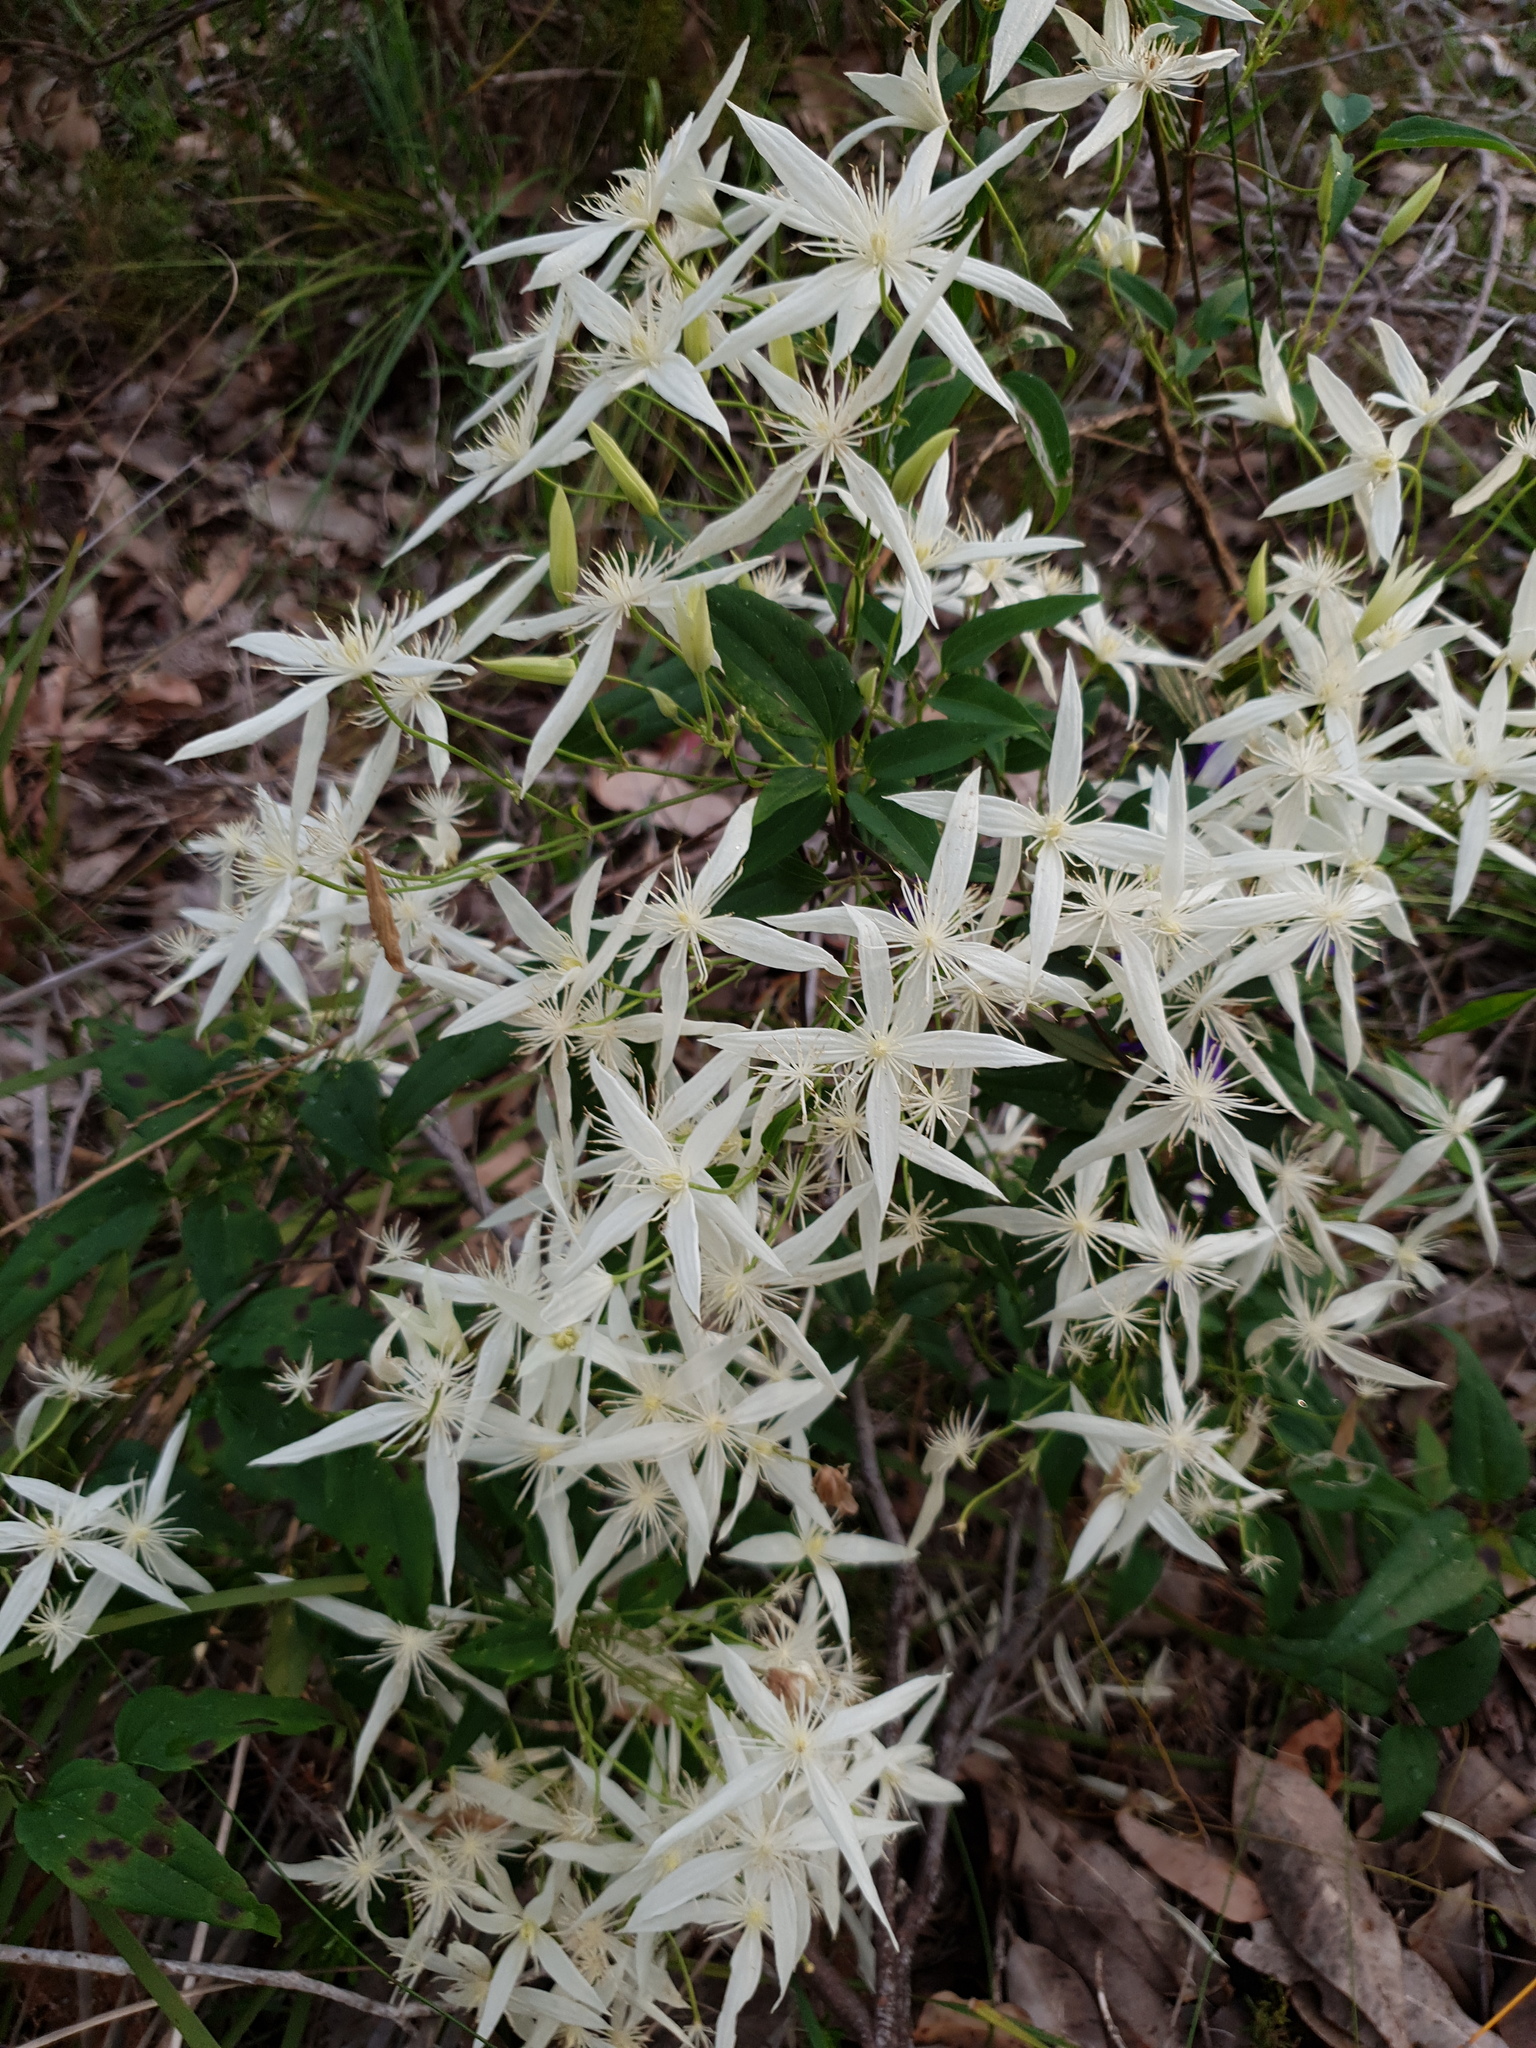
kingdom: Plantae
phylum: Tracheophyta
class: Magnoliopsida
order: Ranunculales
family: Ranunculaceae
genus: Clematis
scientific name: Clematis pubescens
